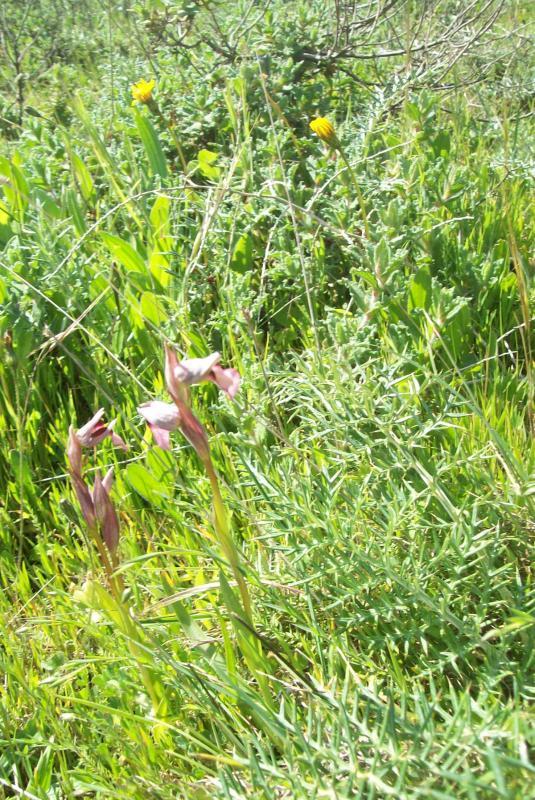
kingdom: Plantae
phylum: Tracheophyta
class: Liliopsida
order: Asparagales
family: Orchidaceae
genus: Serapias
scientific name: Serapias lingua
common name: Tongue-orchid
